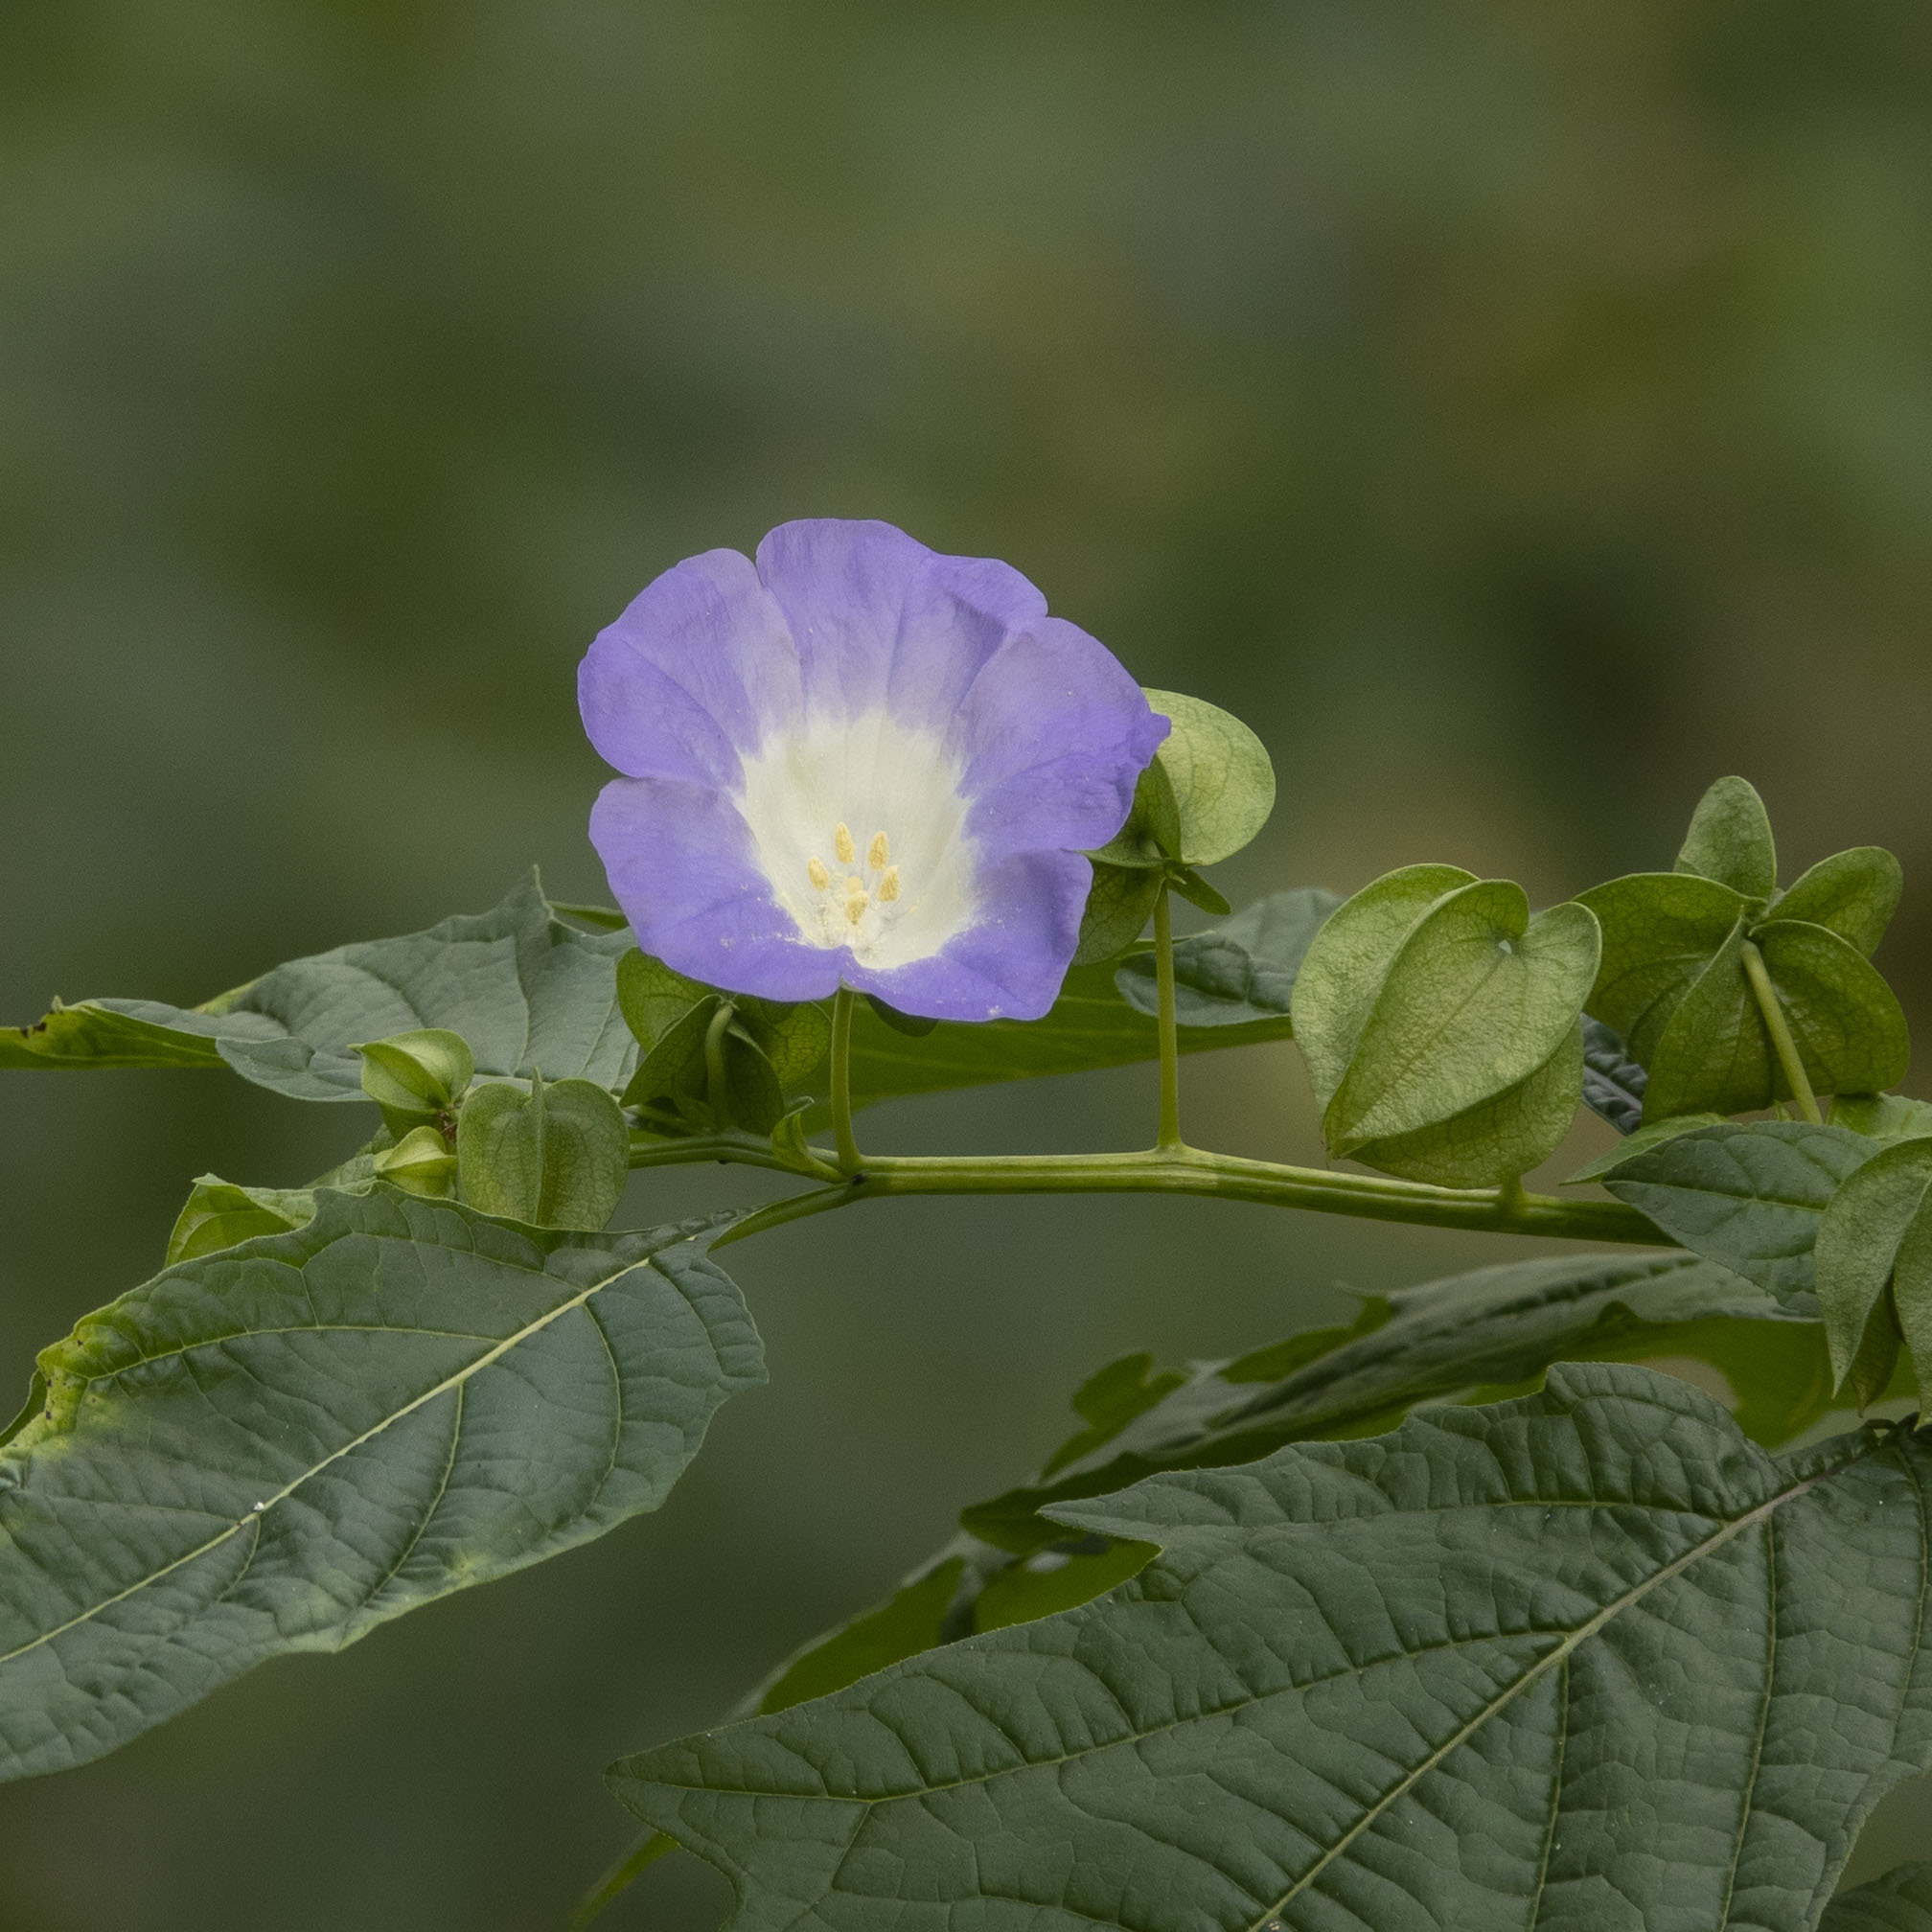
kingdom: Plantae
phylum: Tracheophyta
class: Magnoliopsida
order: Solanales
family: Solanaceae
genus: Nicandra
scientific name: Nicandra physalodes
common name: Apple-of-peru
